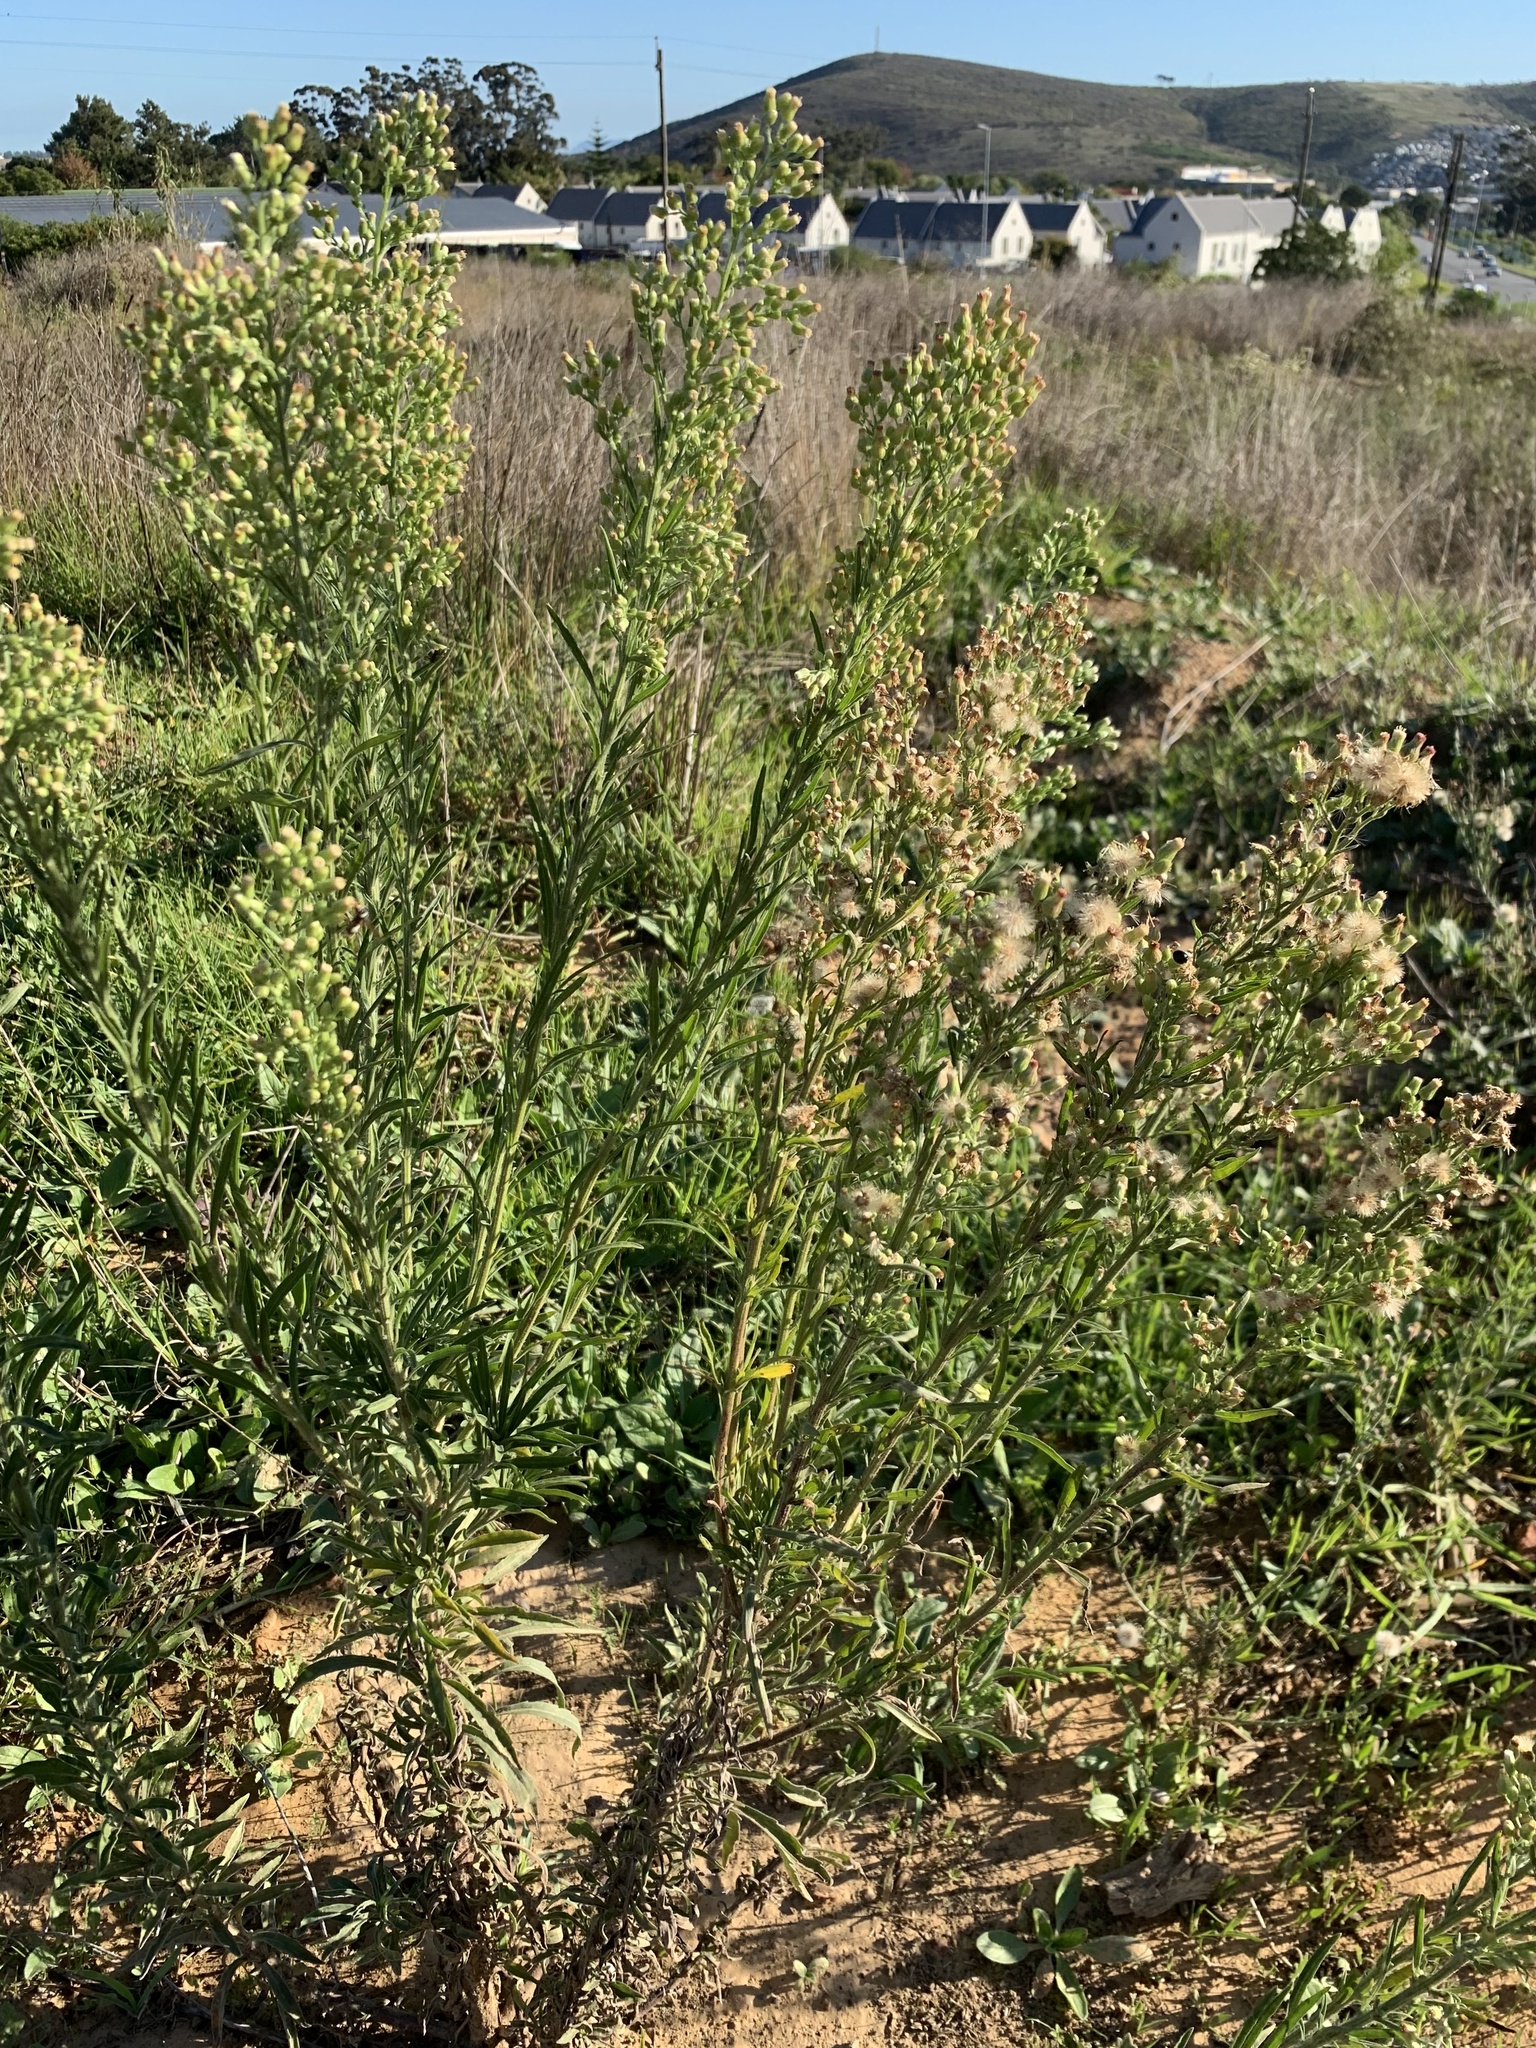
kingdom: Plantae
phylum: Tracheophyta
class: Magnoliopsida
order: Asterales
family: Asteraceae
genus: Erigeron
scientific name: Erigeron sumatrensis
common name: Daisy
